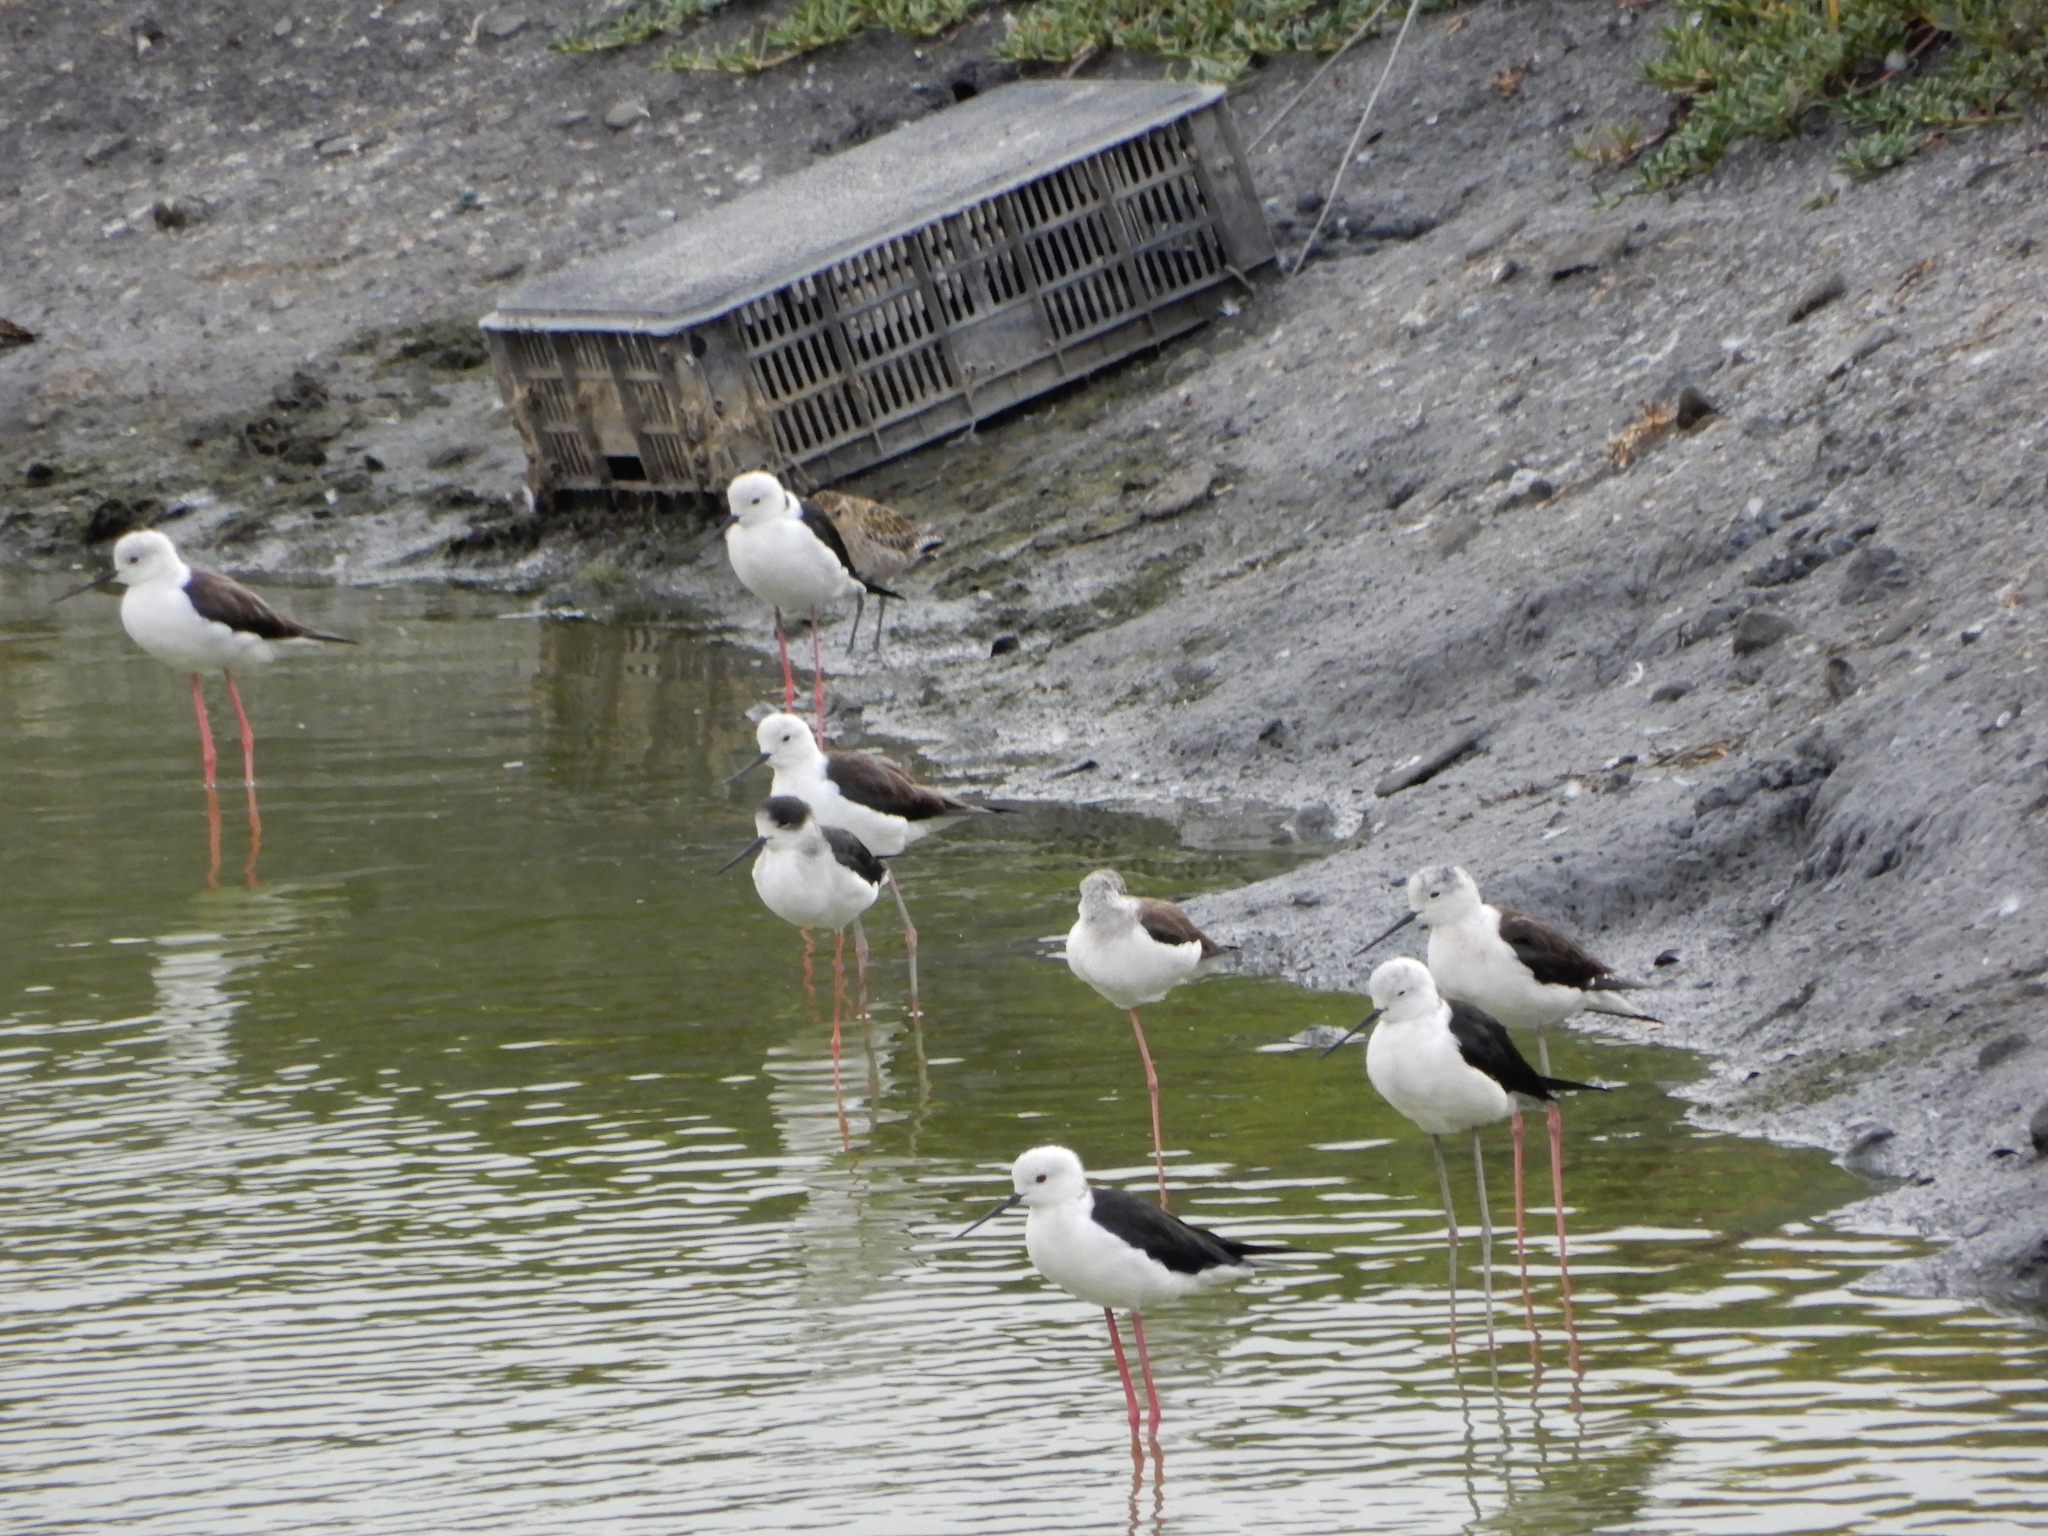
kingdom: Animalia
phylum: Chordata
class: Aves
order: Charadriiformes
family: Recurvirostridae
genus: Himantopus
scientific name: Himantopus himantopus
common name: Black-winged stilt
